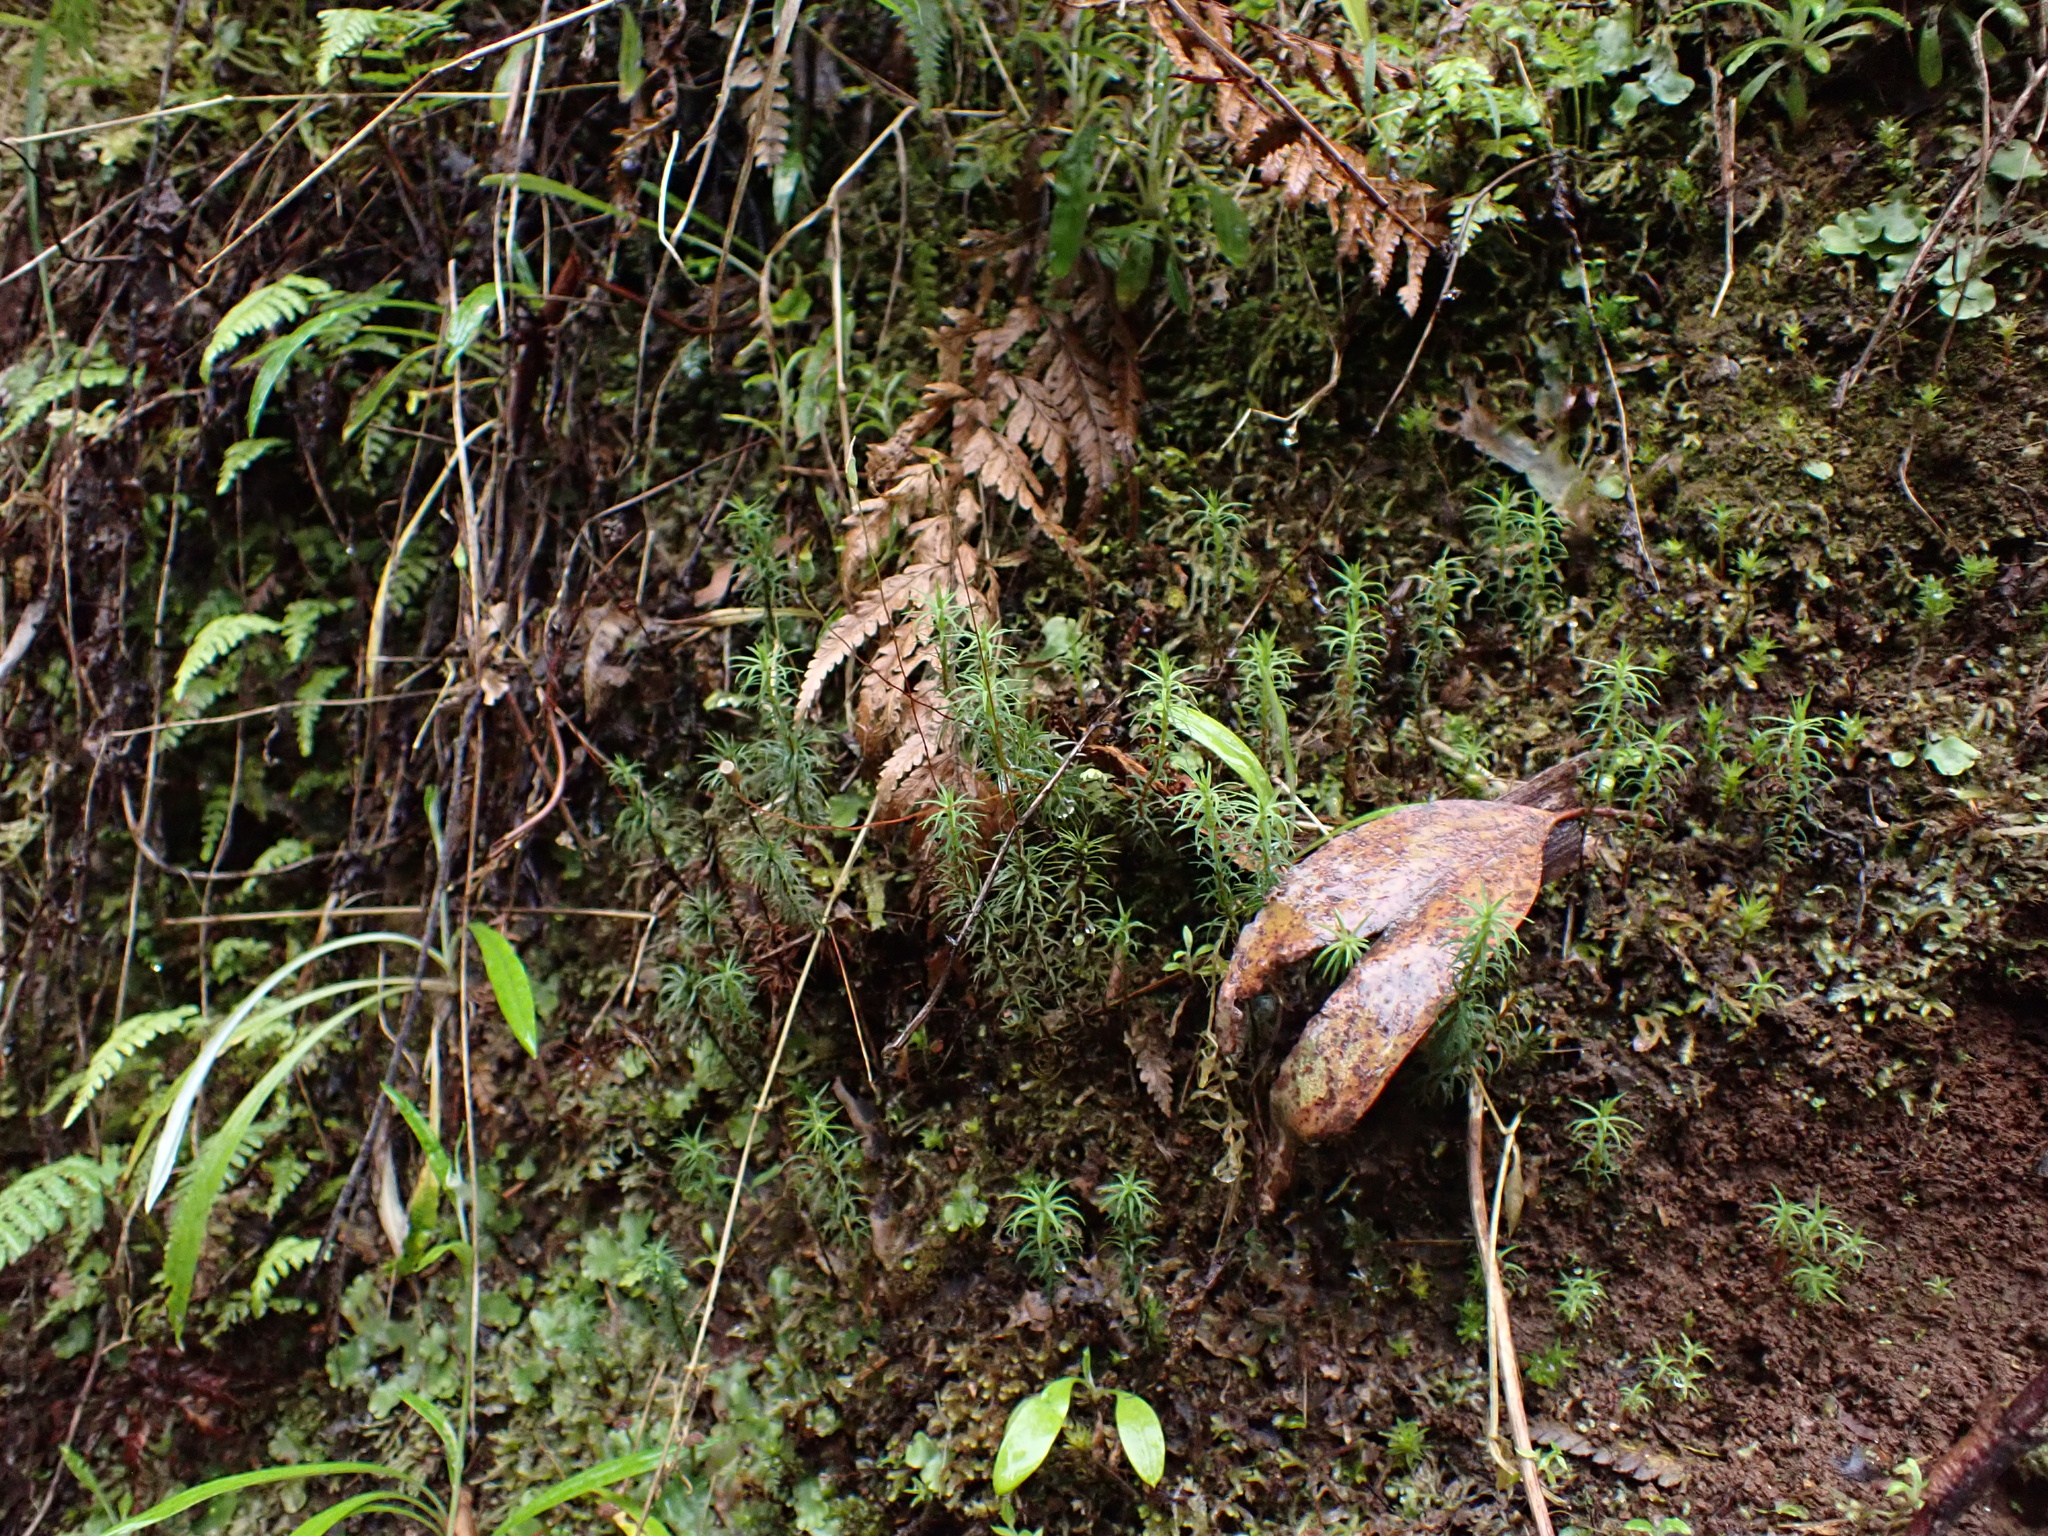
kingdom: Plantae
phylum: Bryophyta
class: Polytrichopsida
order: Polytrichales
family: Polytrichaceae
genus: Polytrichadelphus
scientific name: Polytrichadelphus magellanicus
